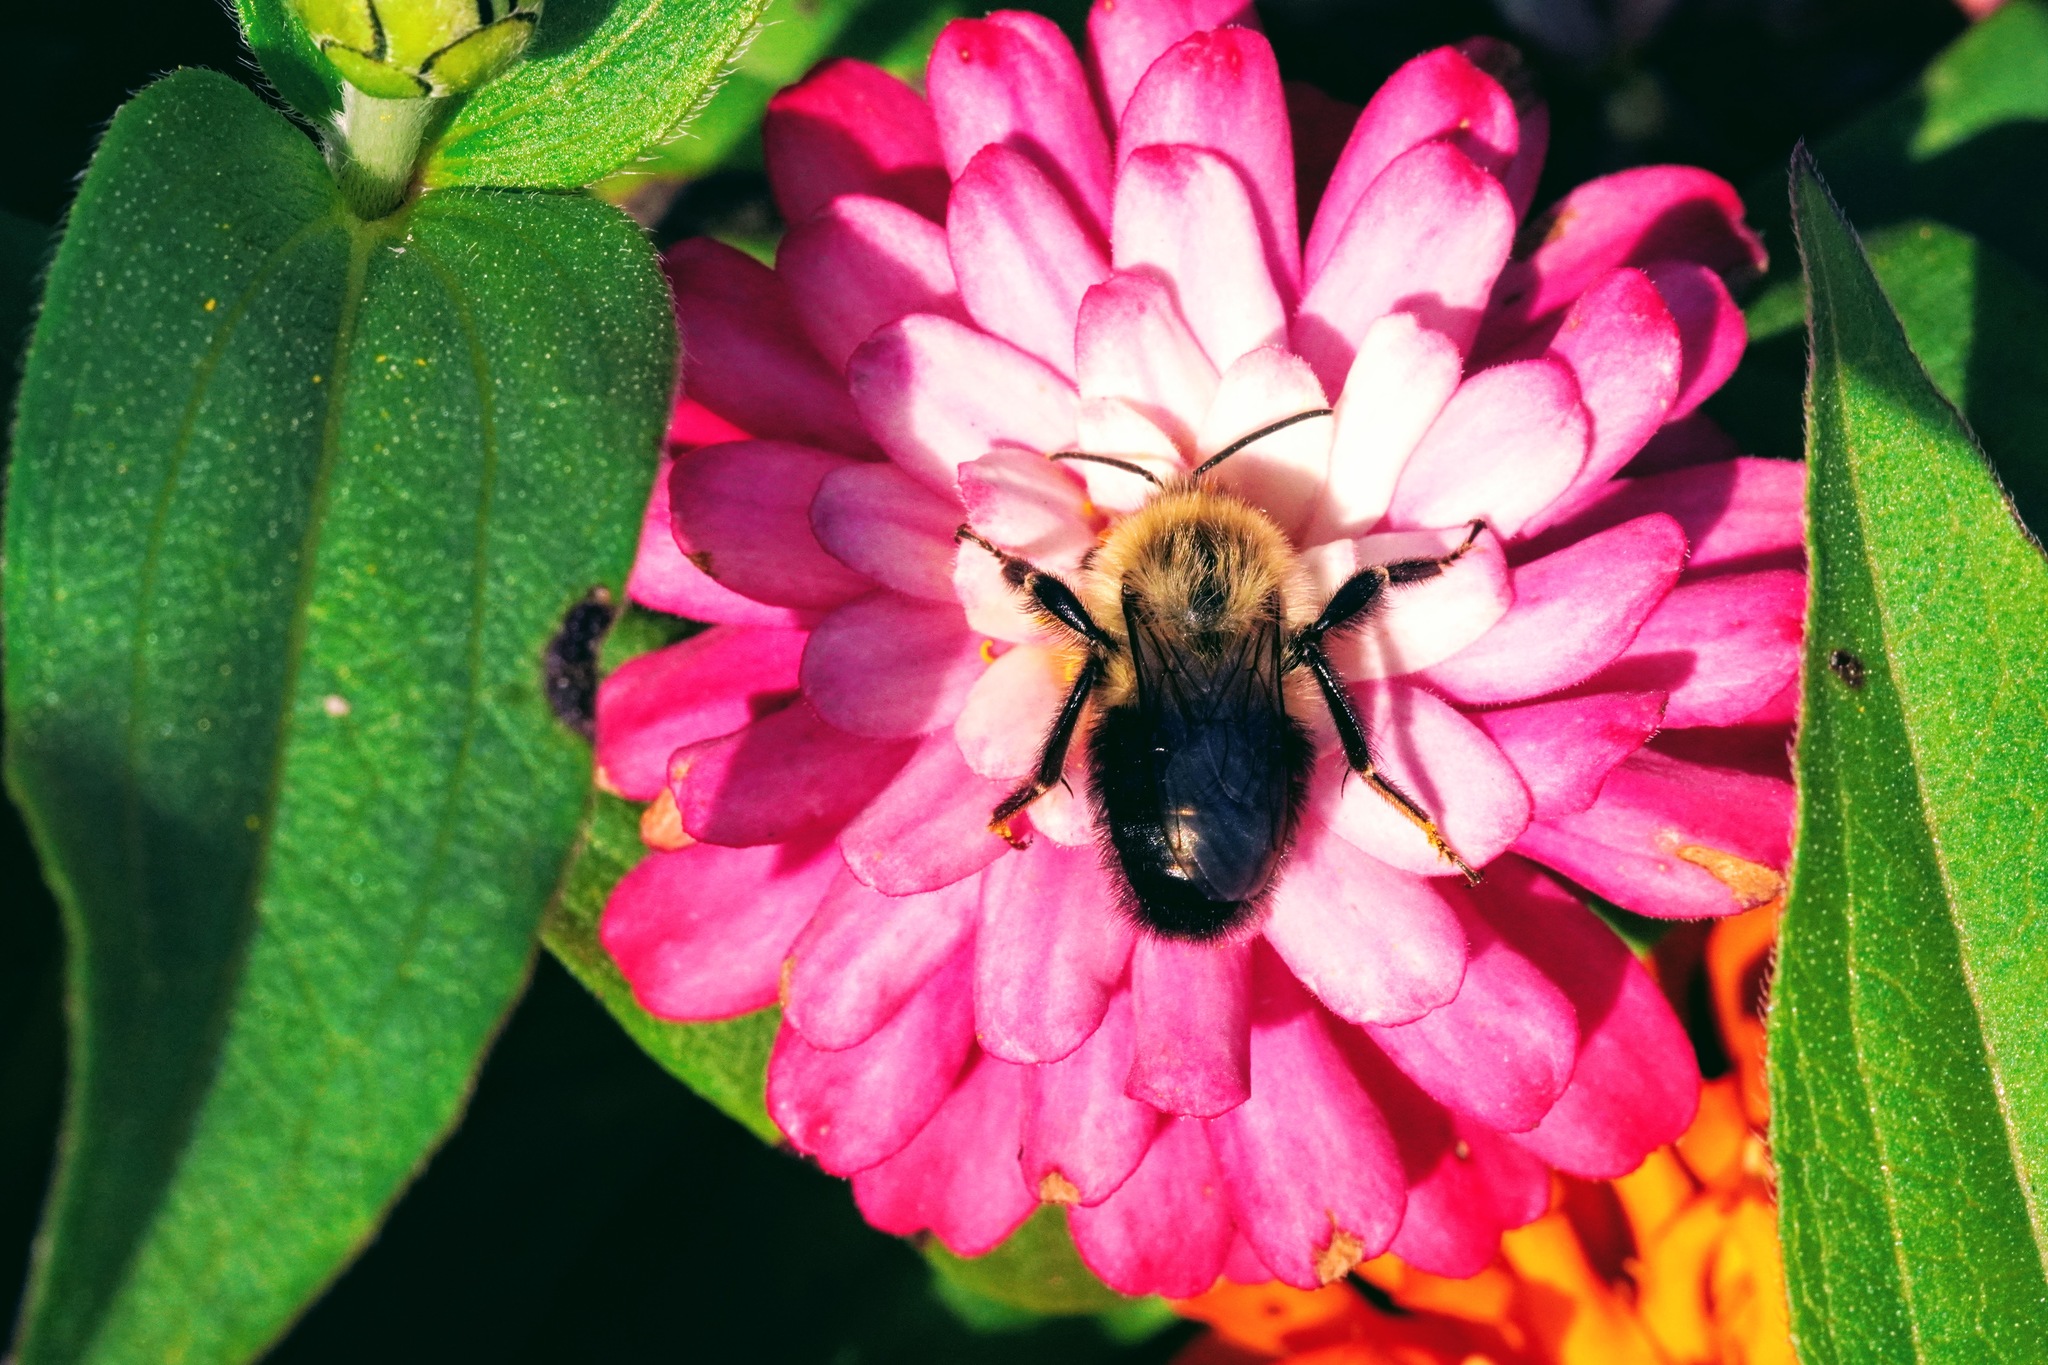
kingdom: Animalia
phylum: Arthropoda
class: Insecta
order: Hymenoptera
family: Apidae
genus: Bombus
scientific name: Bombus impatiens
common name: Common eastern bumble bee
